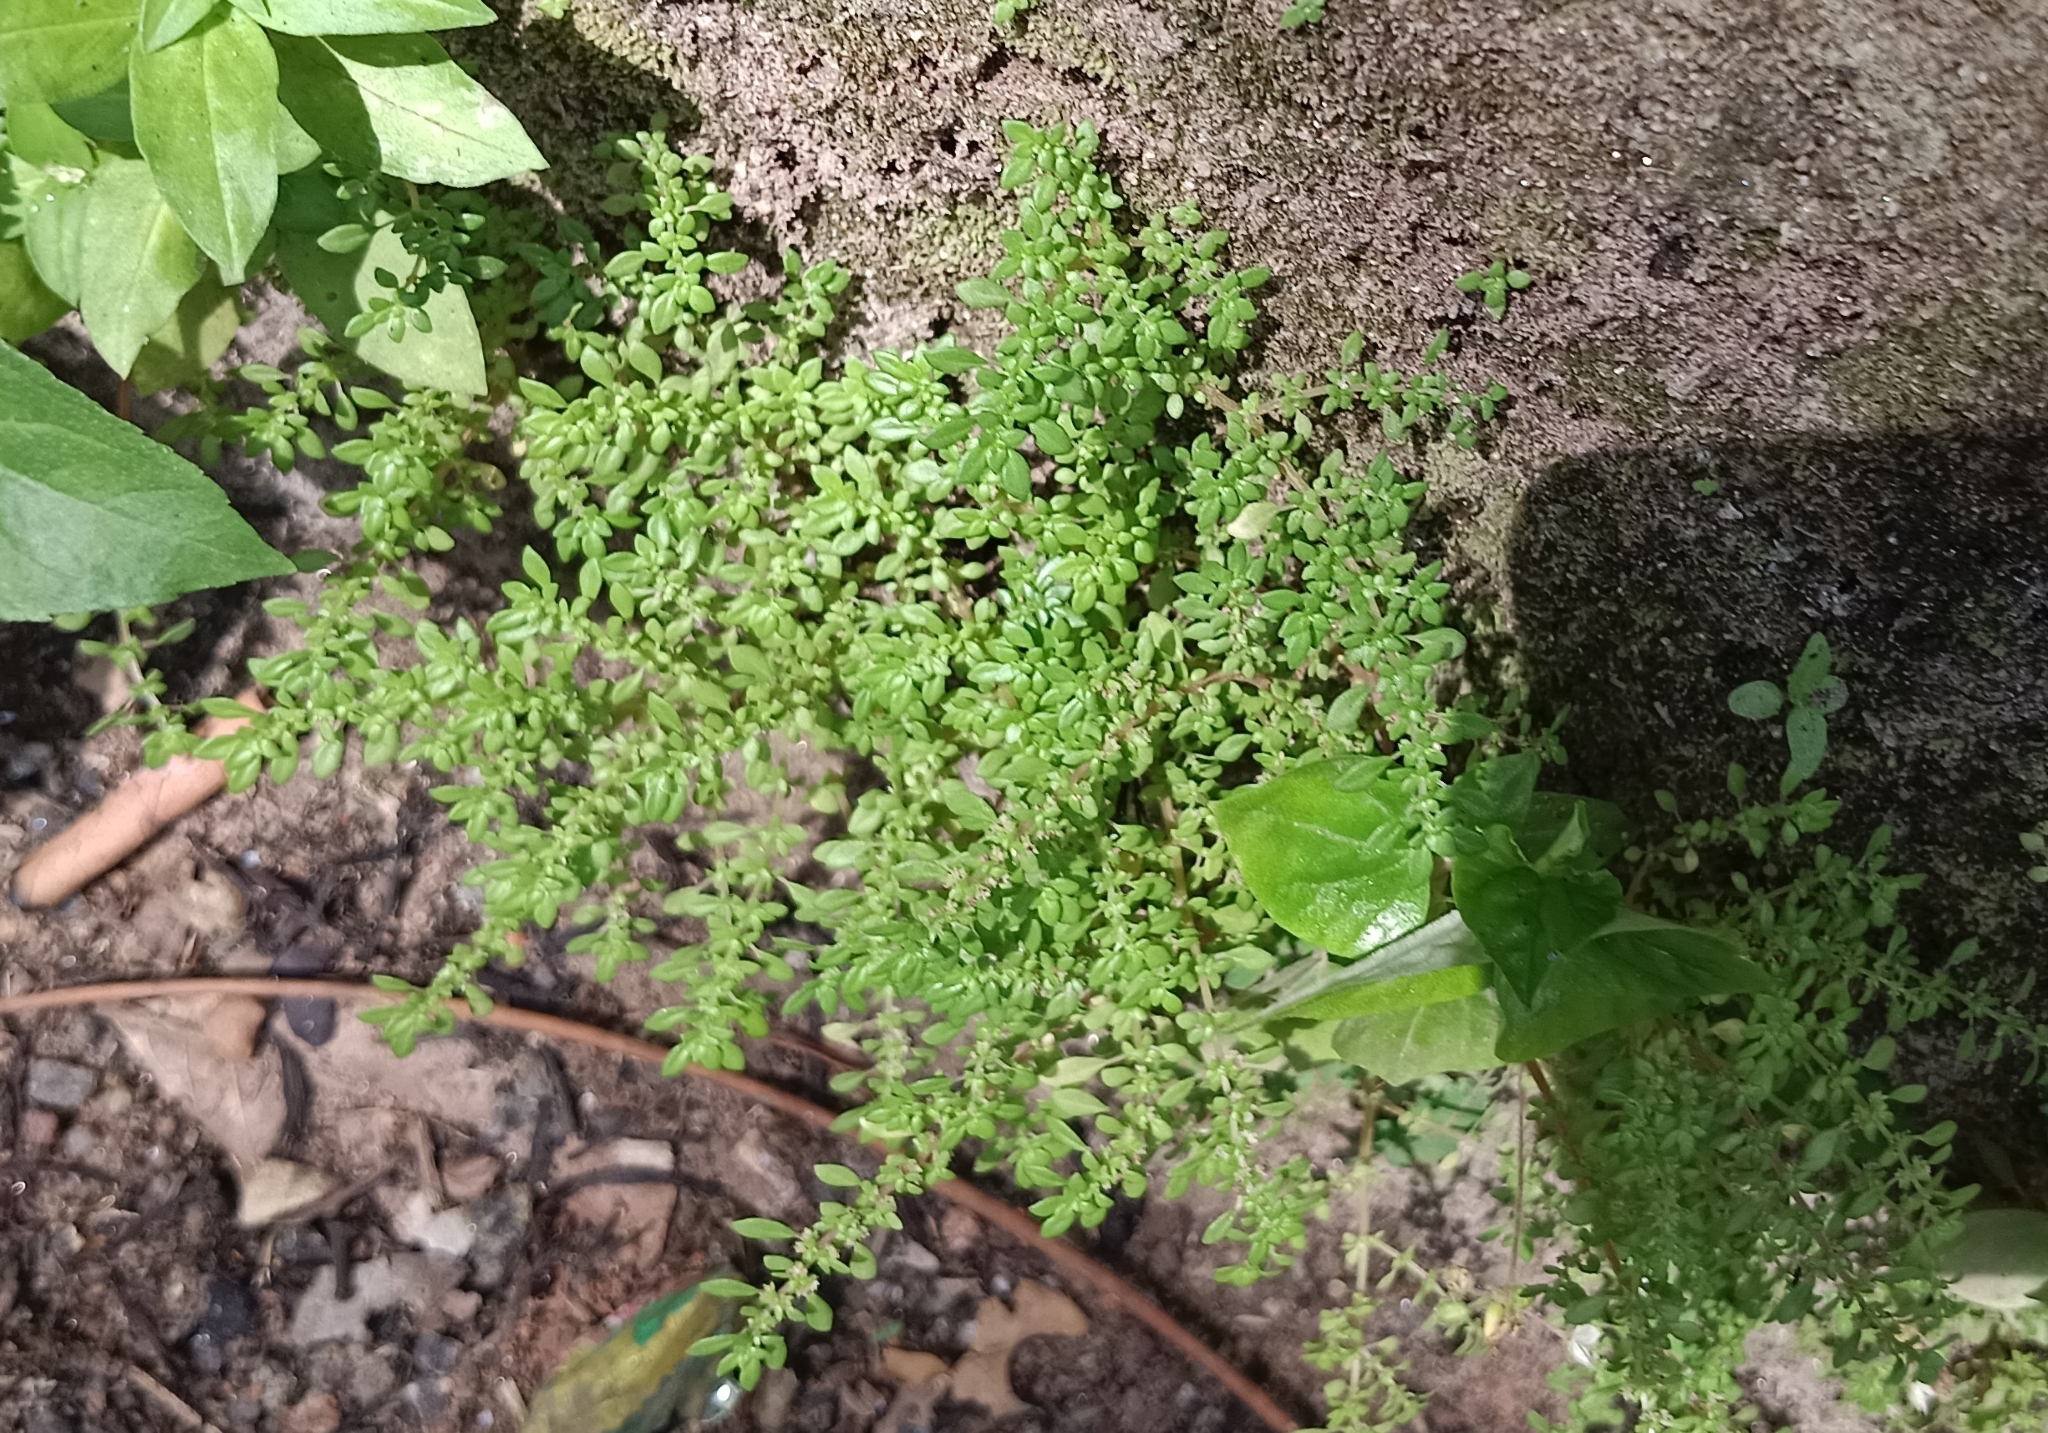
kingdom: Plantae
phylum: Tracheophyta
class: Magnoliopsida
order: Rosales
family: Urticaceae
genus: Pilea
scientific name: Pilea microphylla
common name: Artillery-plant
